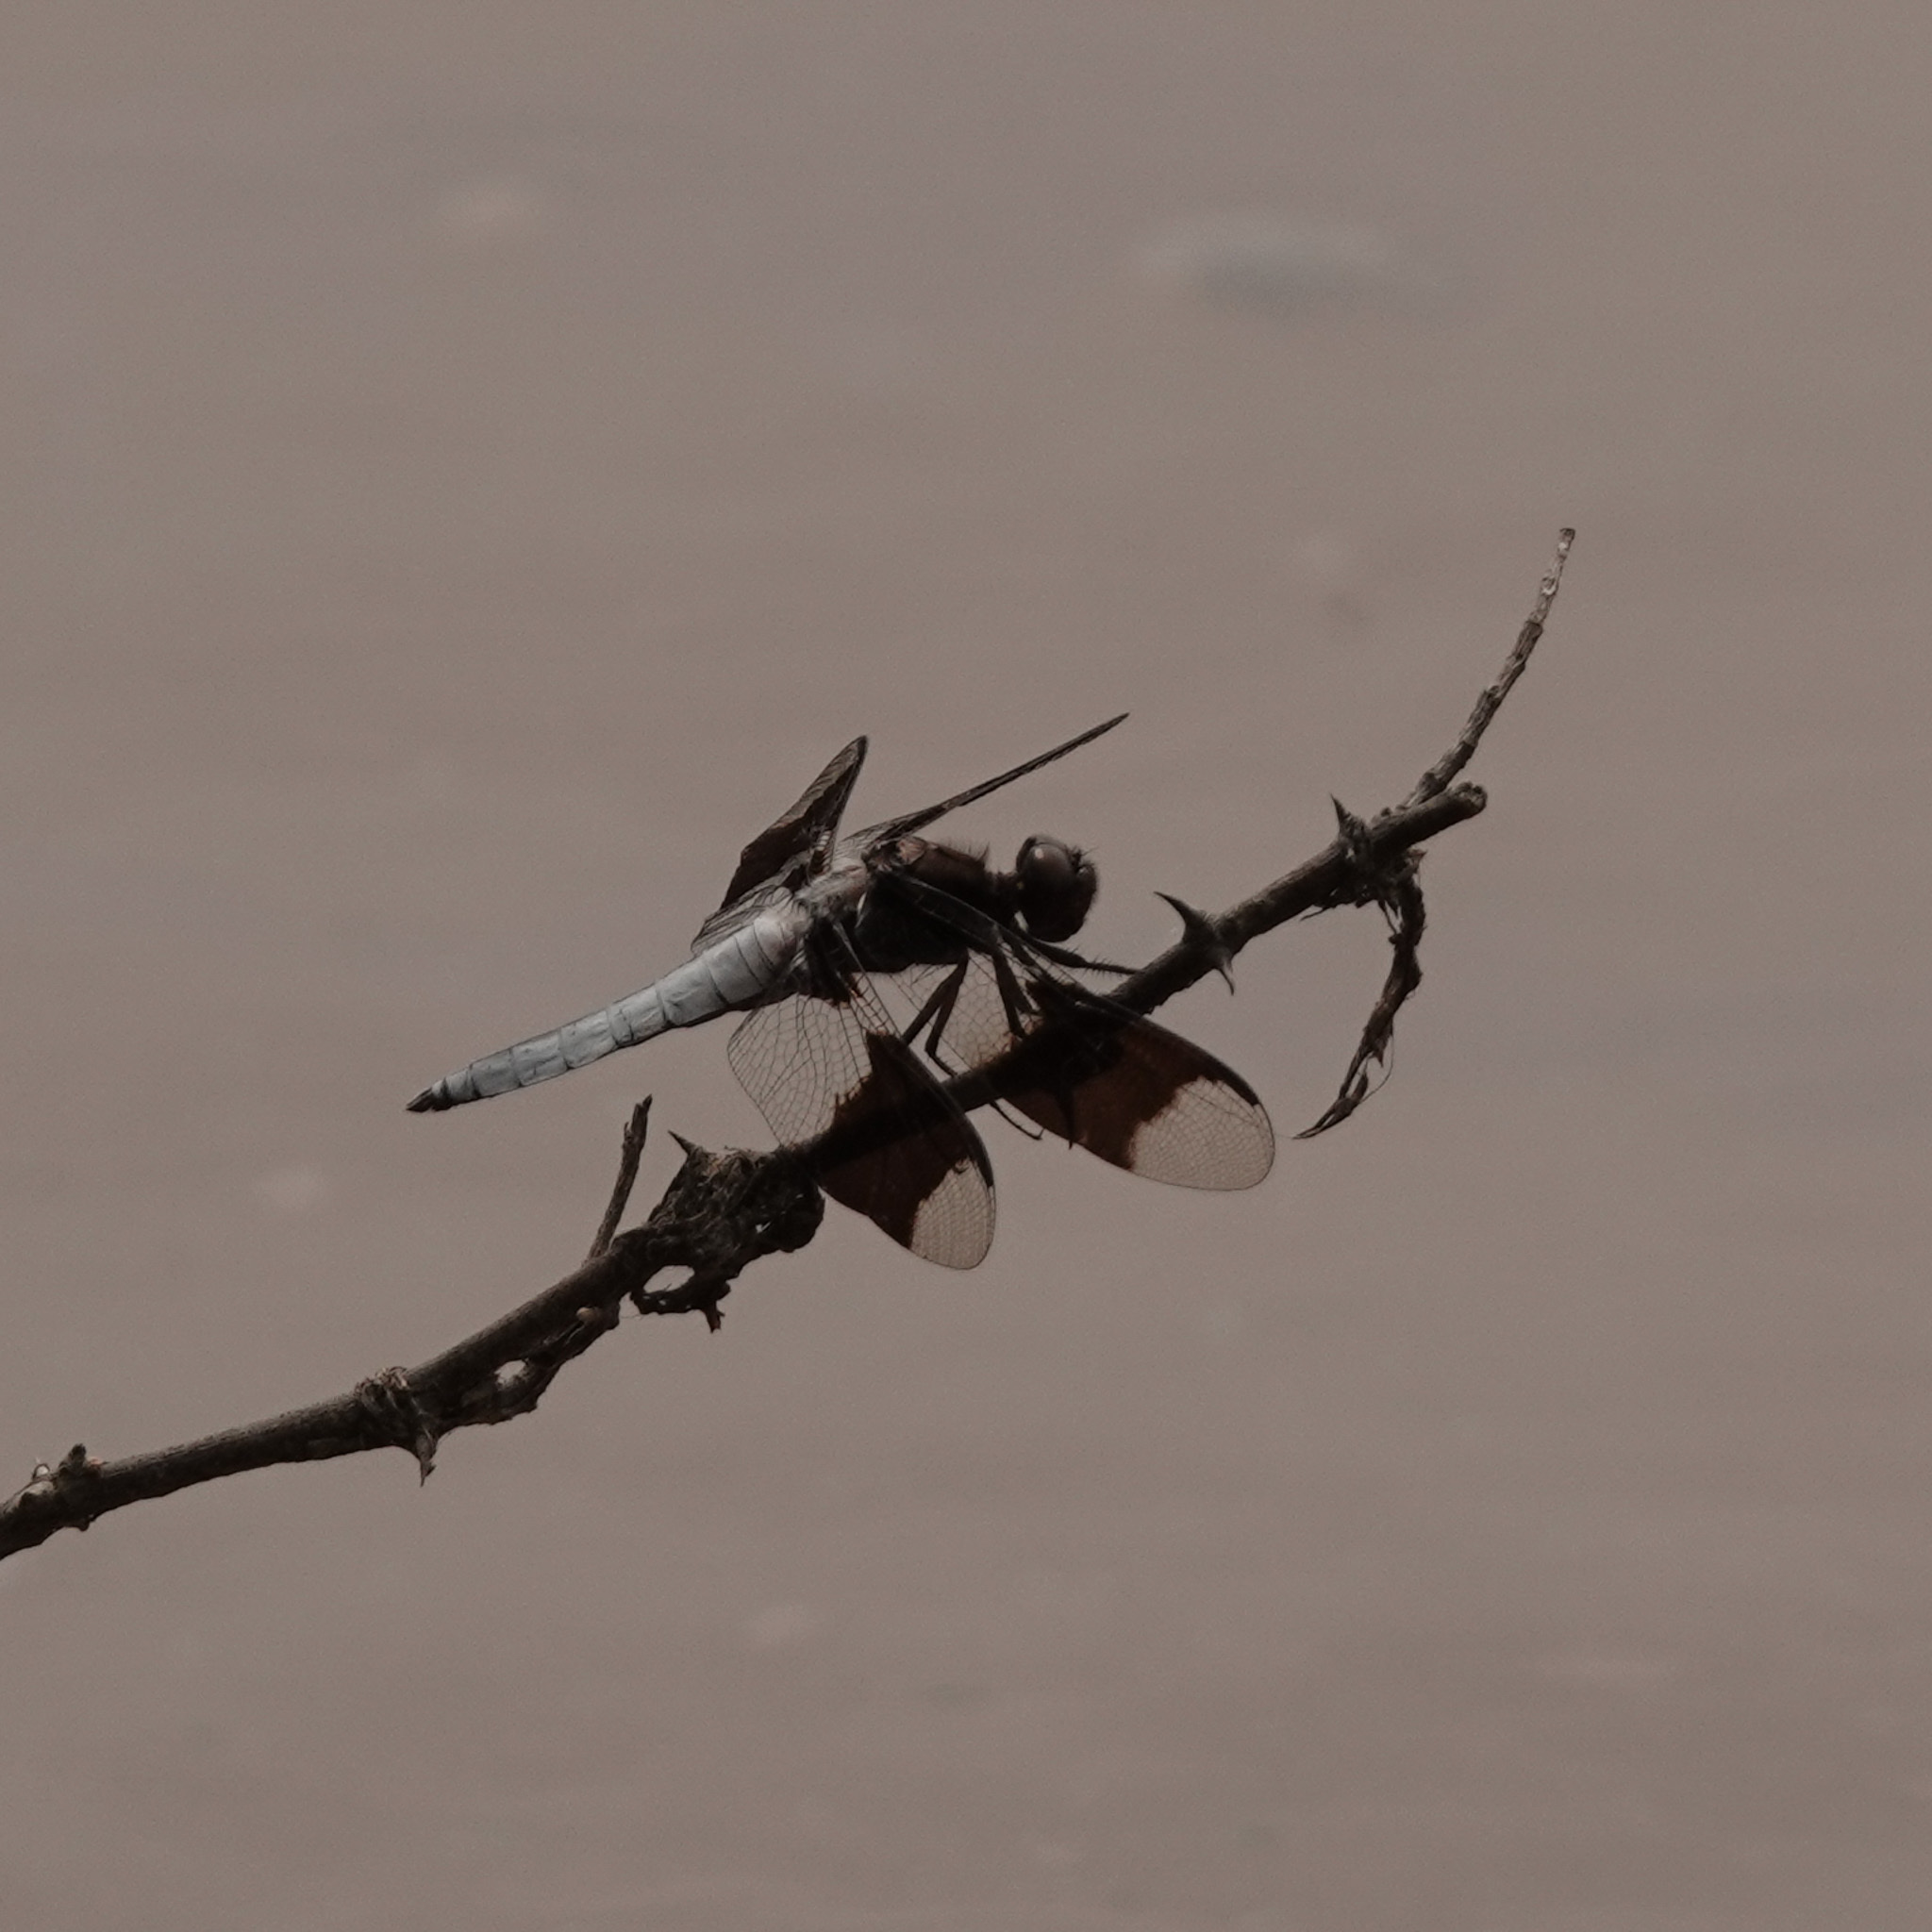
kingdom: Animalia
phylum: Arthropoda
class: Insecta
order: Odonata
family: Libellulidae
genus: Plathemis
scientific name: Plathemis lydia
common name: Common whitetail
